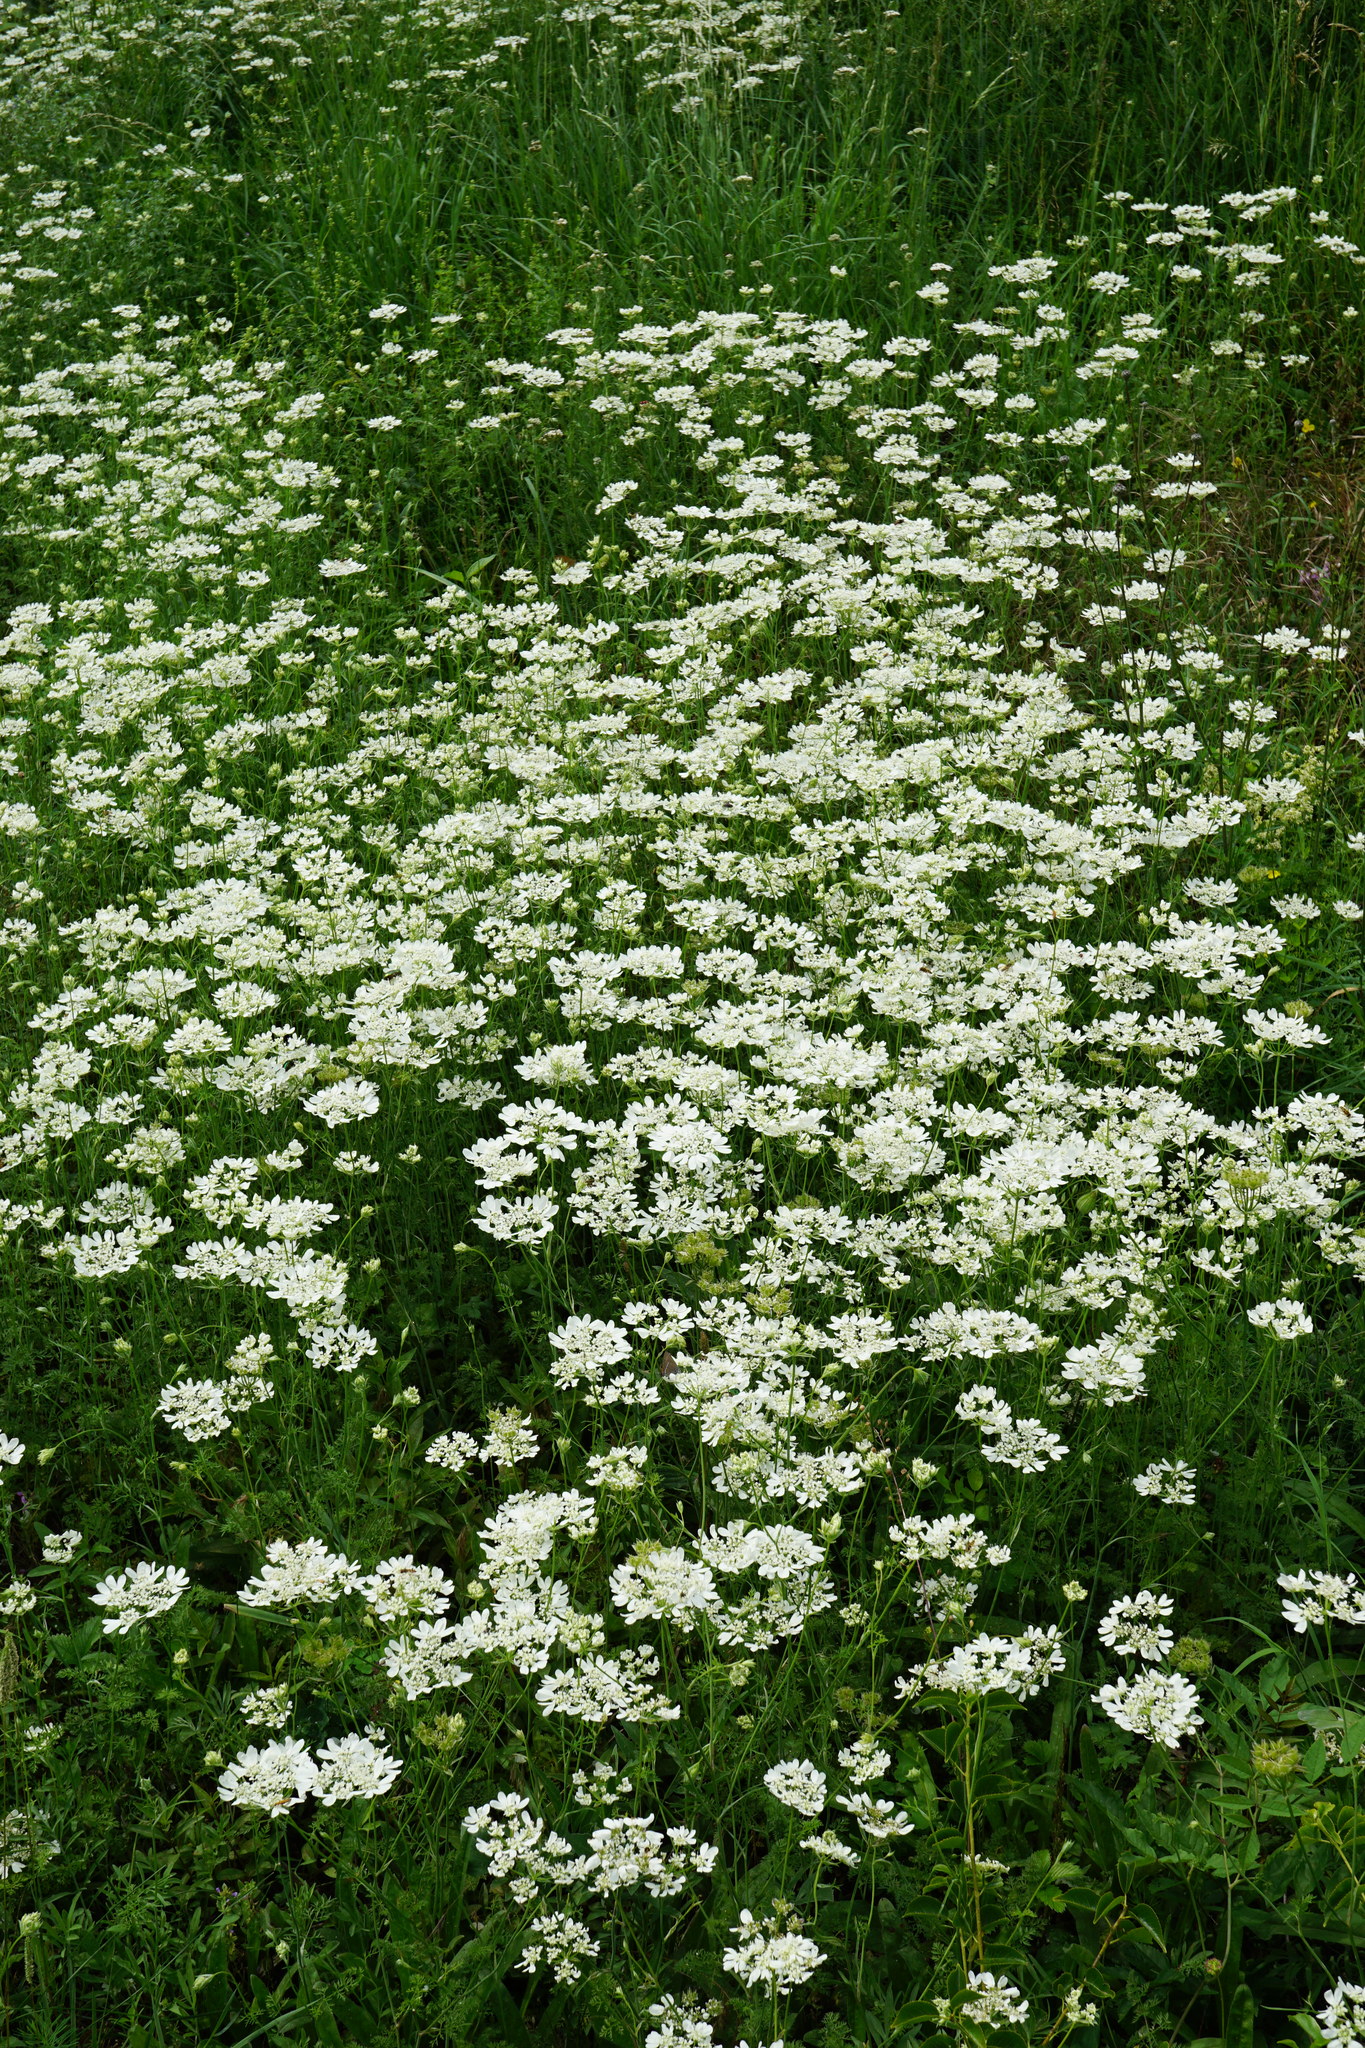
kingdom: Plantae
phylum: Tracheophyta
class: Magnoliopsida
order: Apiales
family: Apiaceae
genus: Orlaya
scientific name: Orlaya grandiflora
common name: White lace flower
